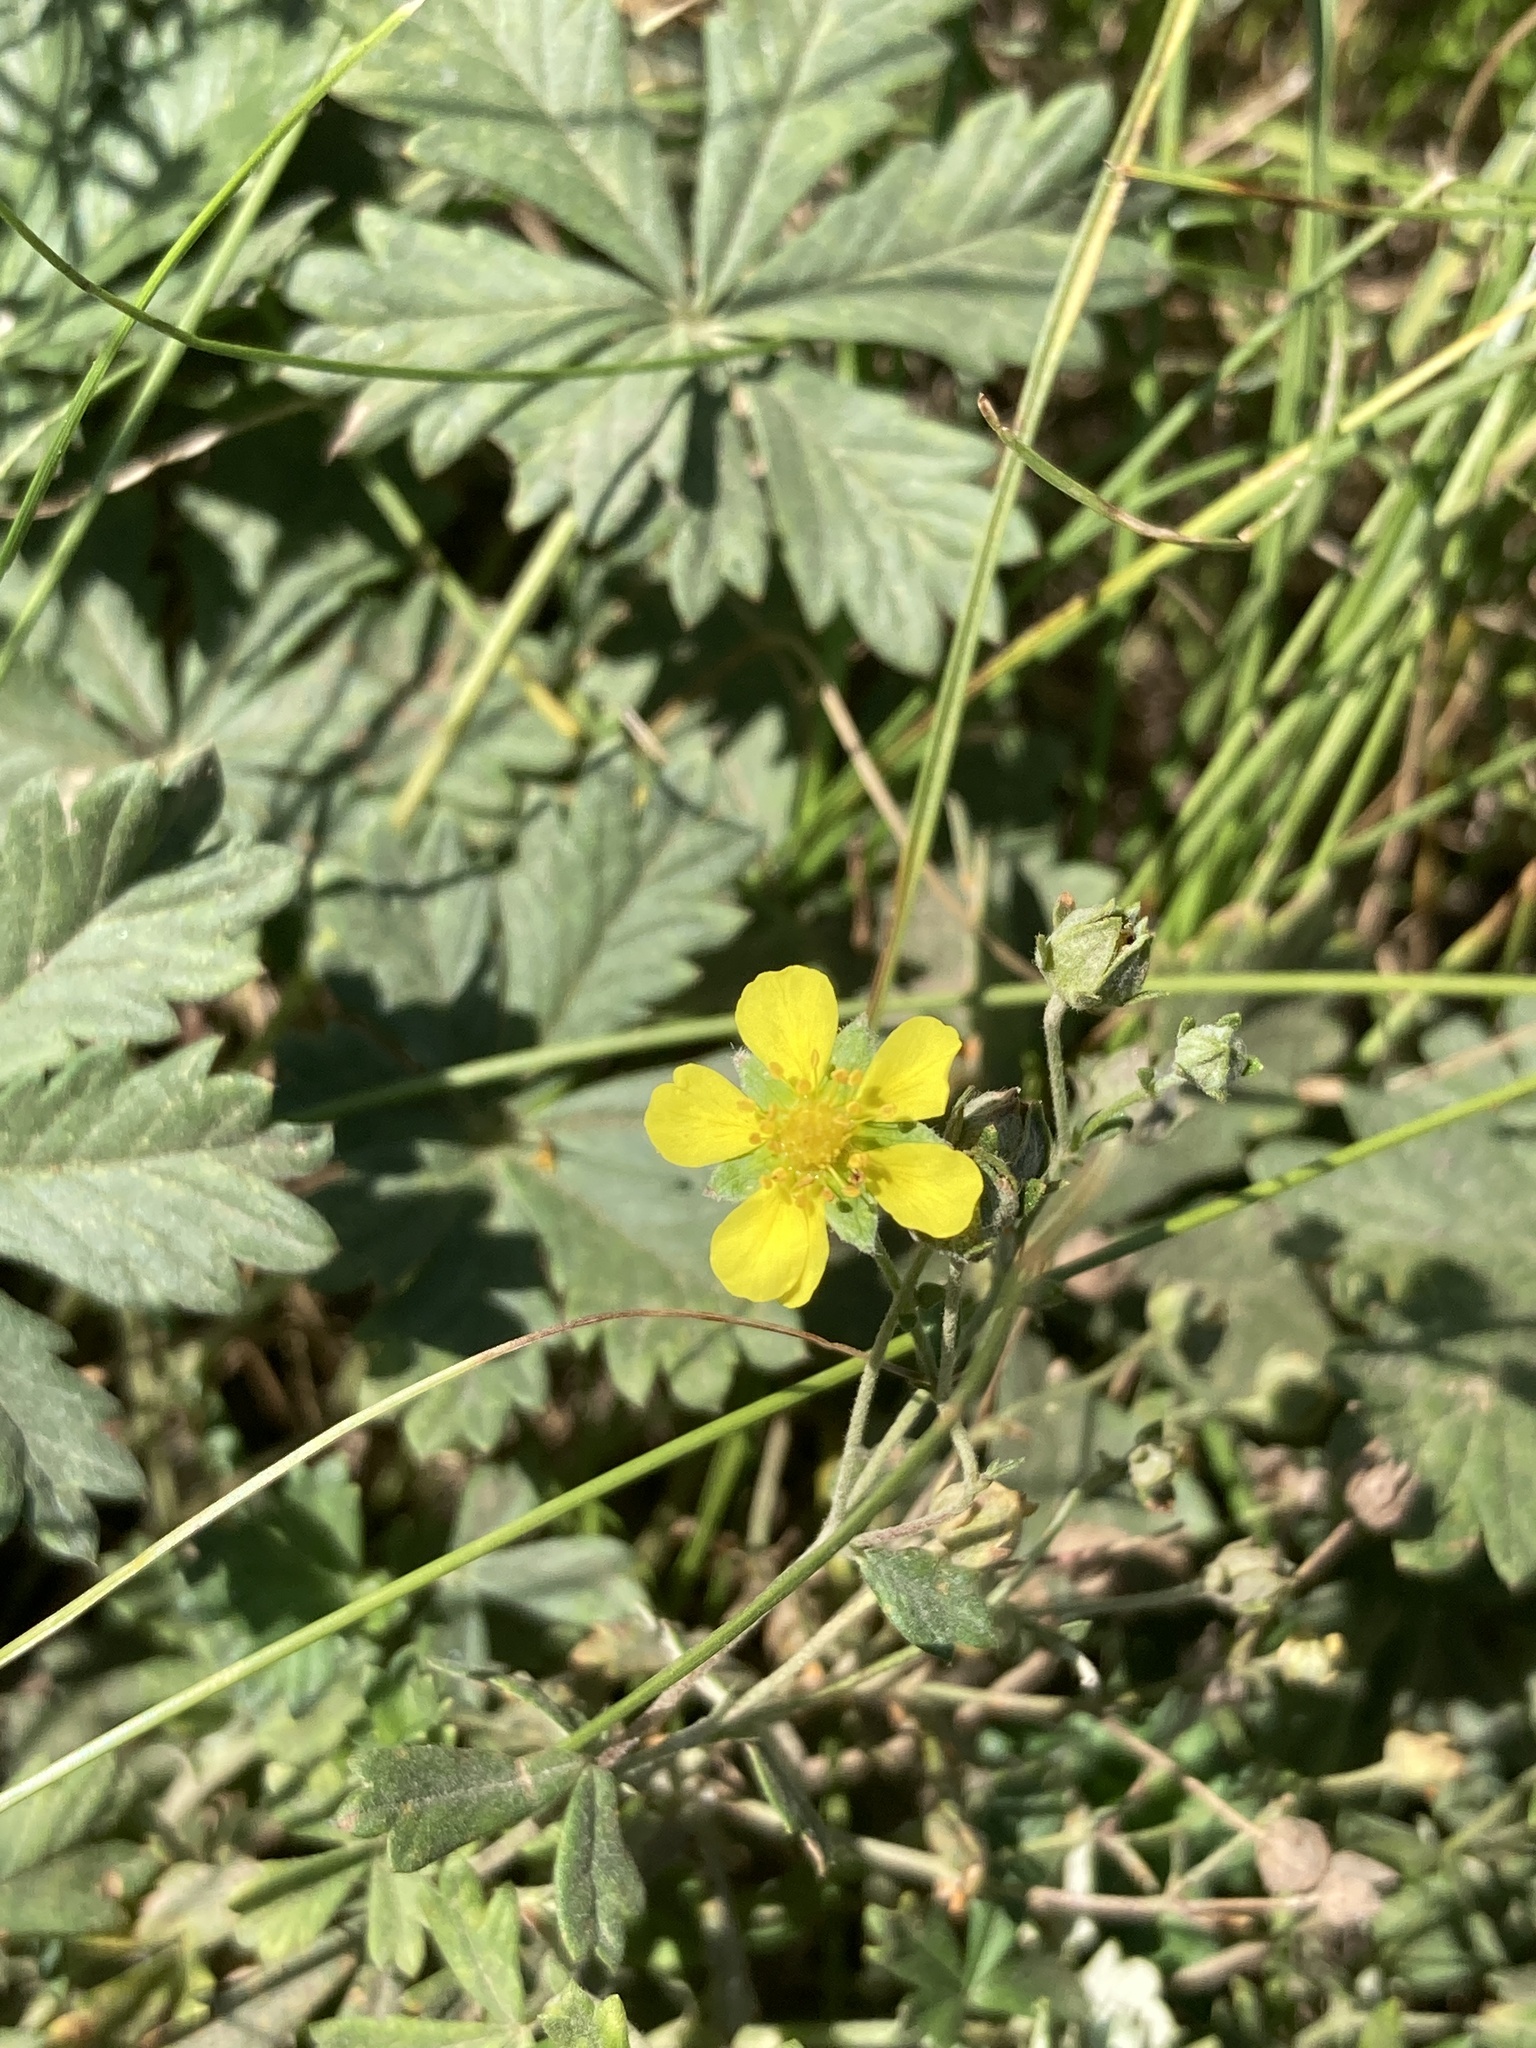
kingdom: Plantae
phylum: Tracheophyta
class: Magnoliopsida
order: Rosales
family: Rosaceae
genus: Potentilla
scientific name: Potentilla argentea
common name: Hoary cinquefoil
